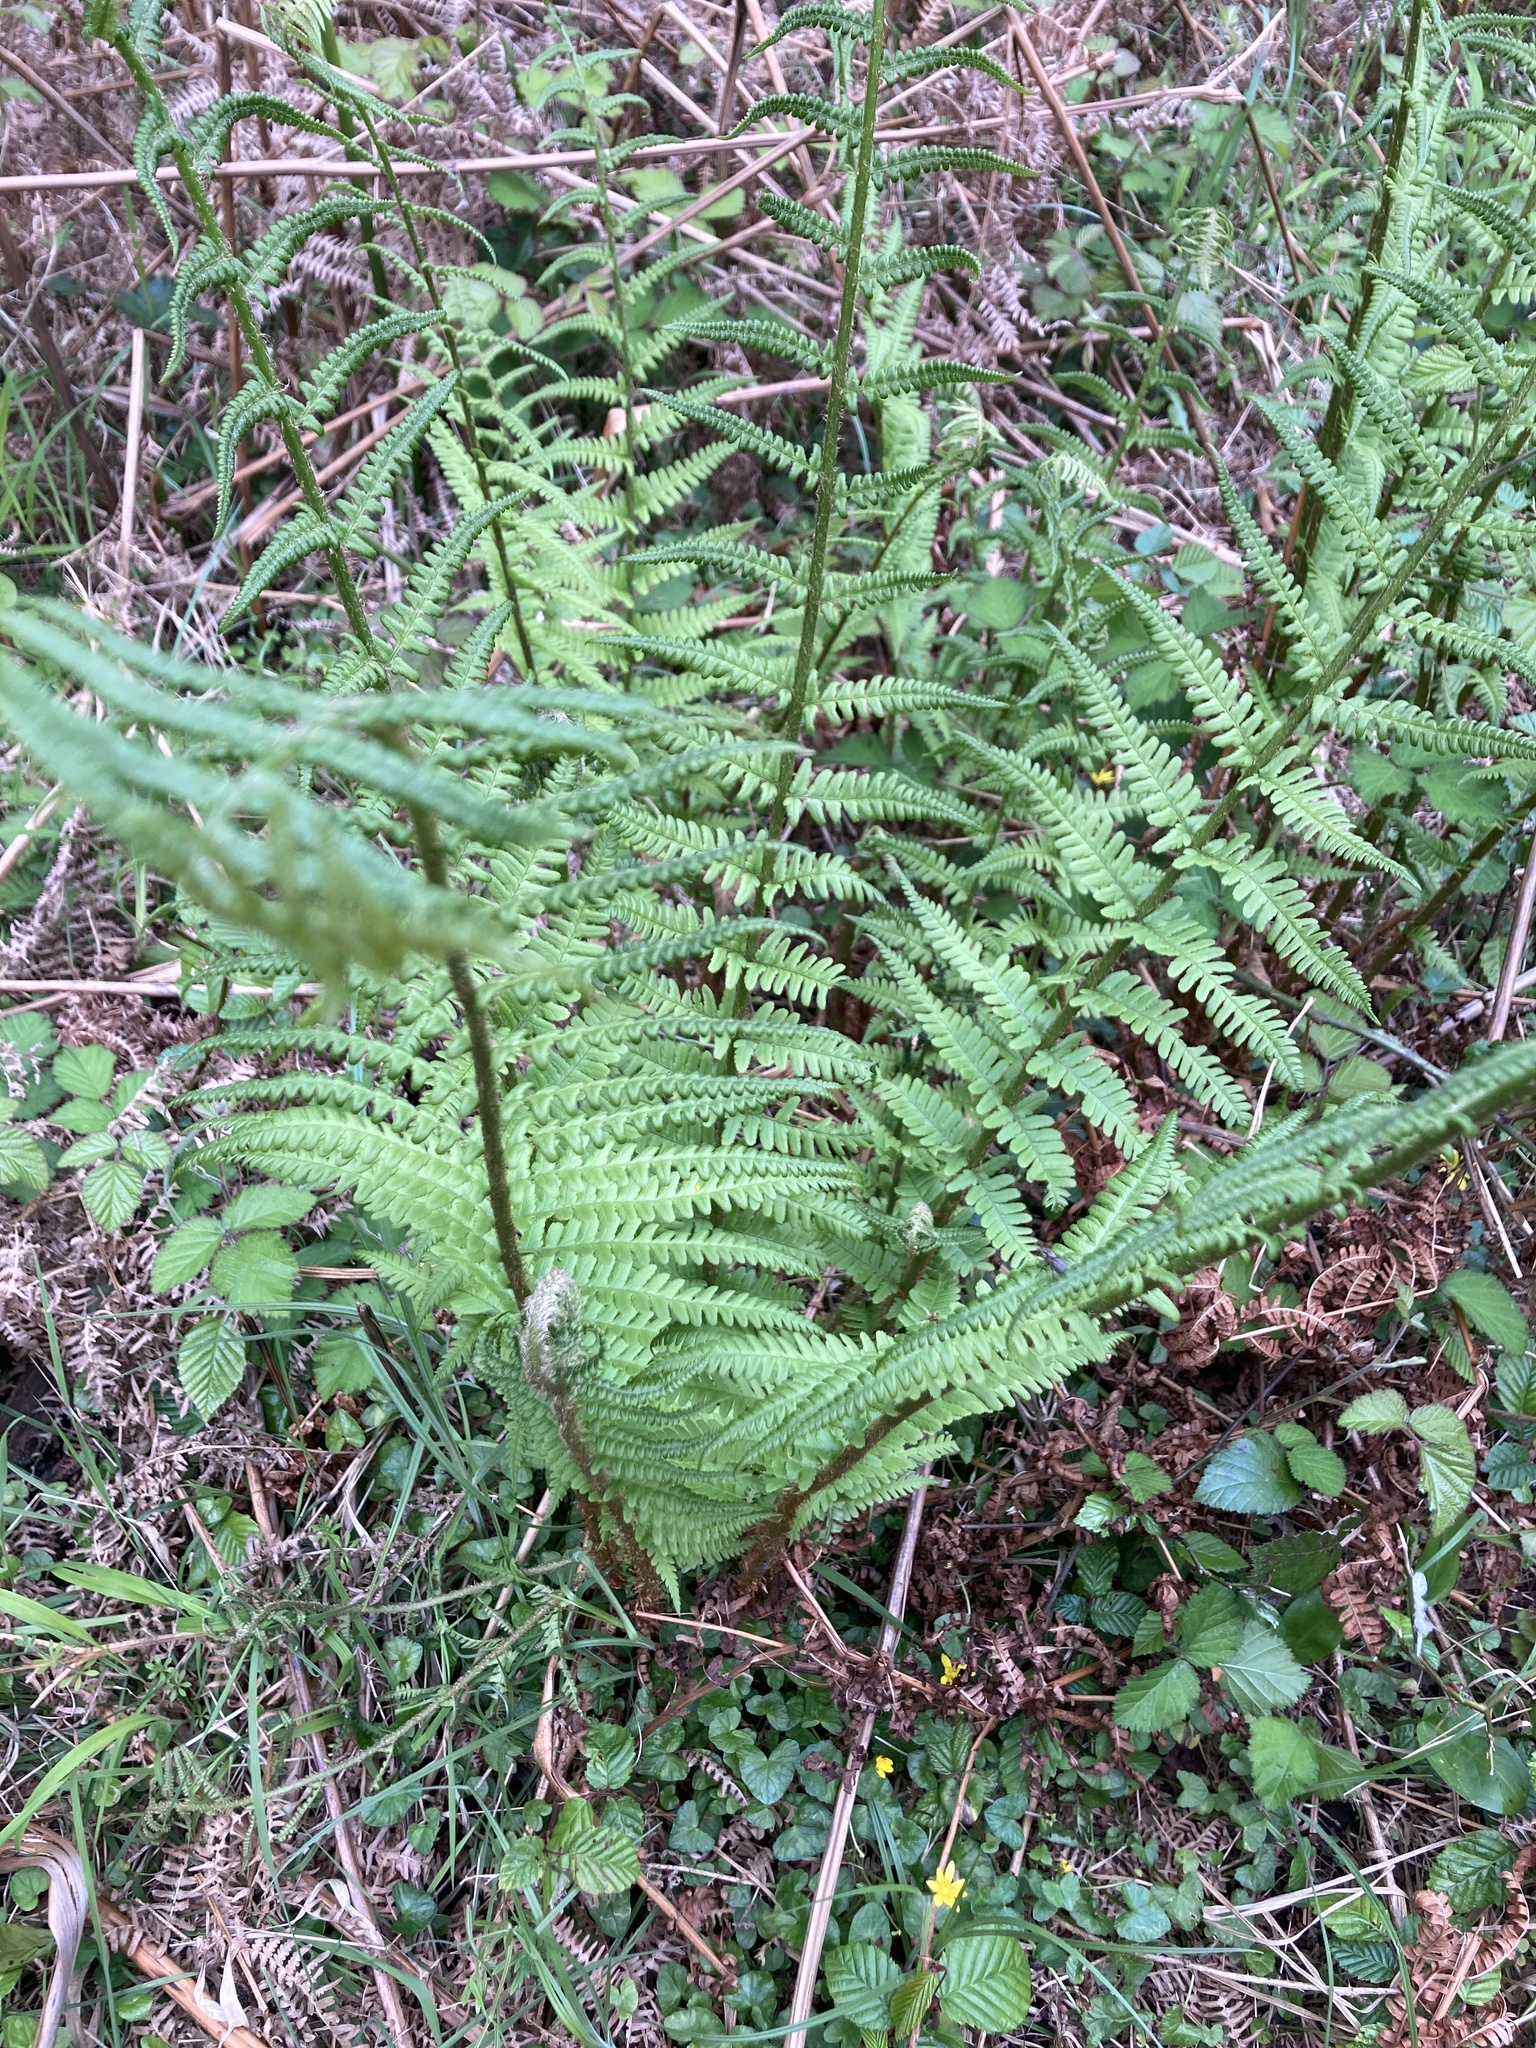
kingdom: Plantae
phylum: Tracheophyta
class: Polypodiopsida
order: Polypodiales
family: Dryopteridaceae
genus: Dryopteris
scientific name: Dryopteris filix-mas
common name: Male fern
